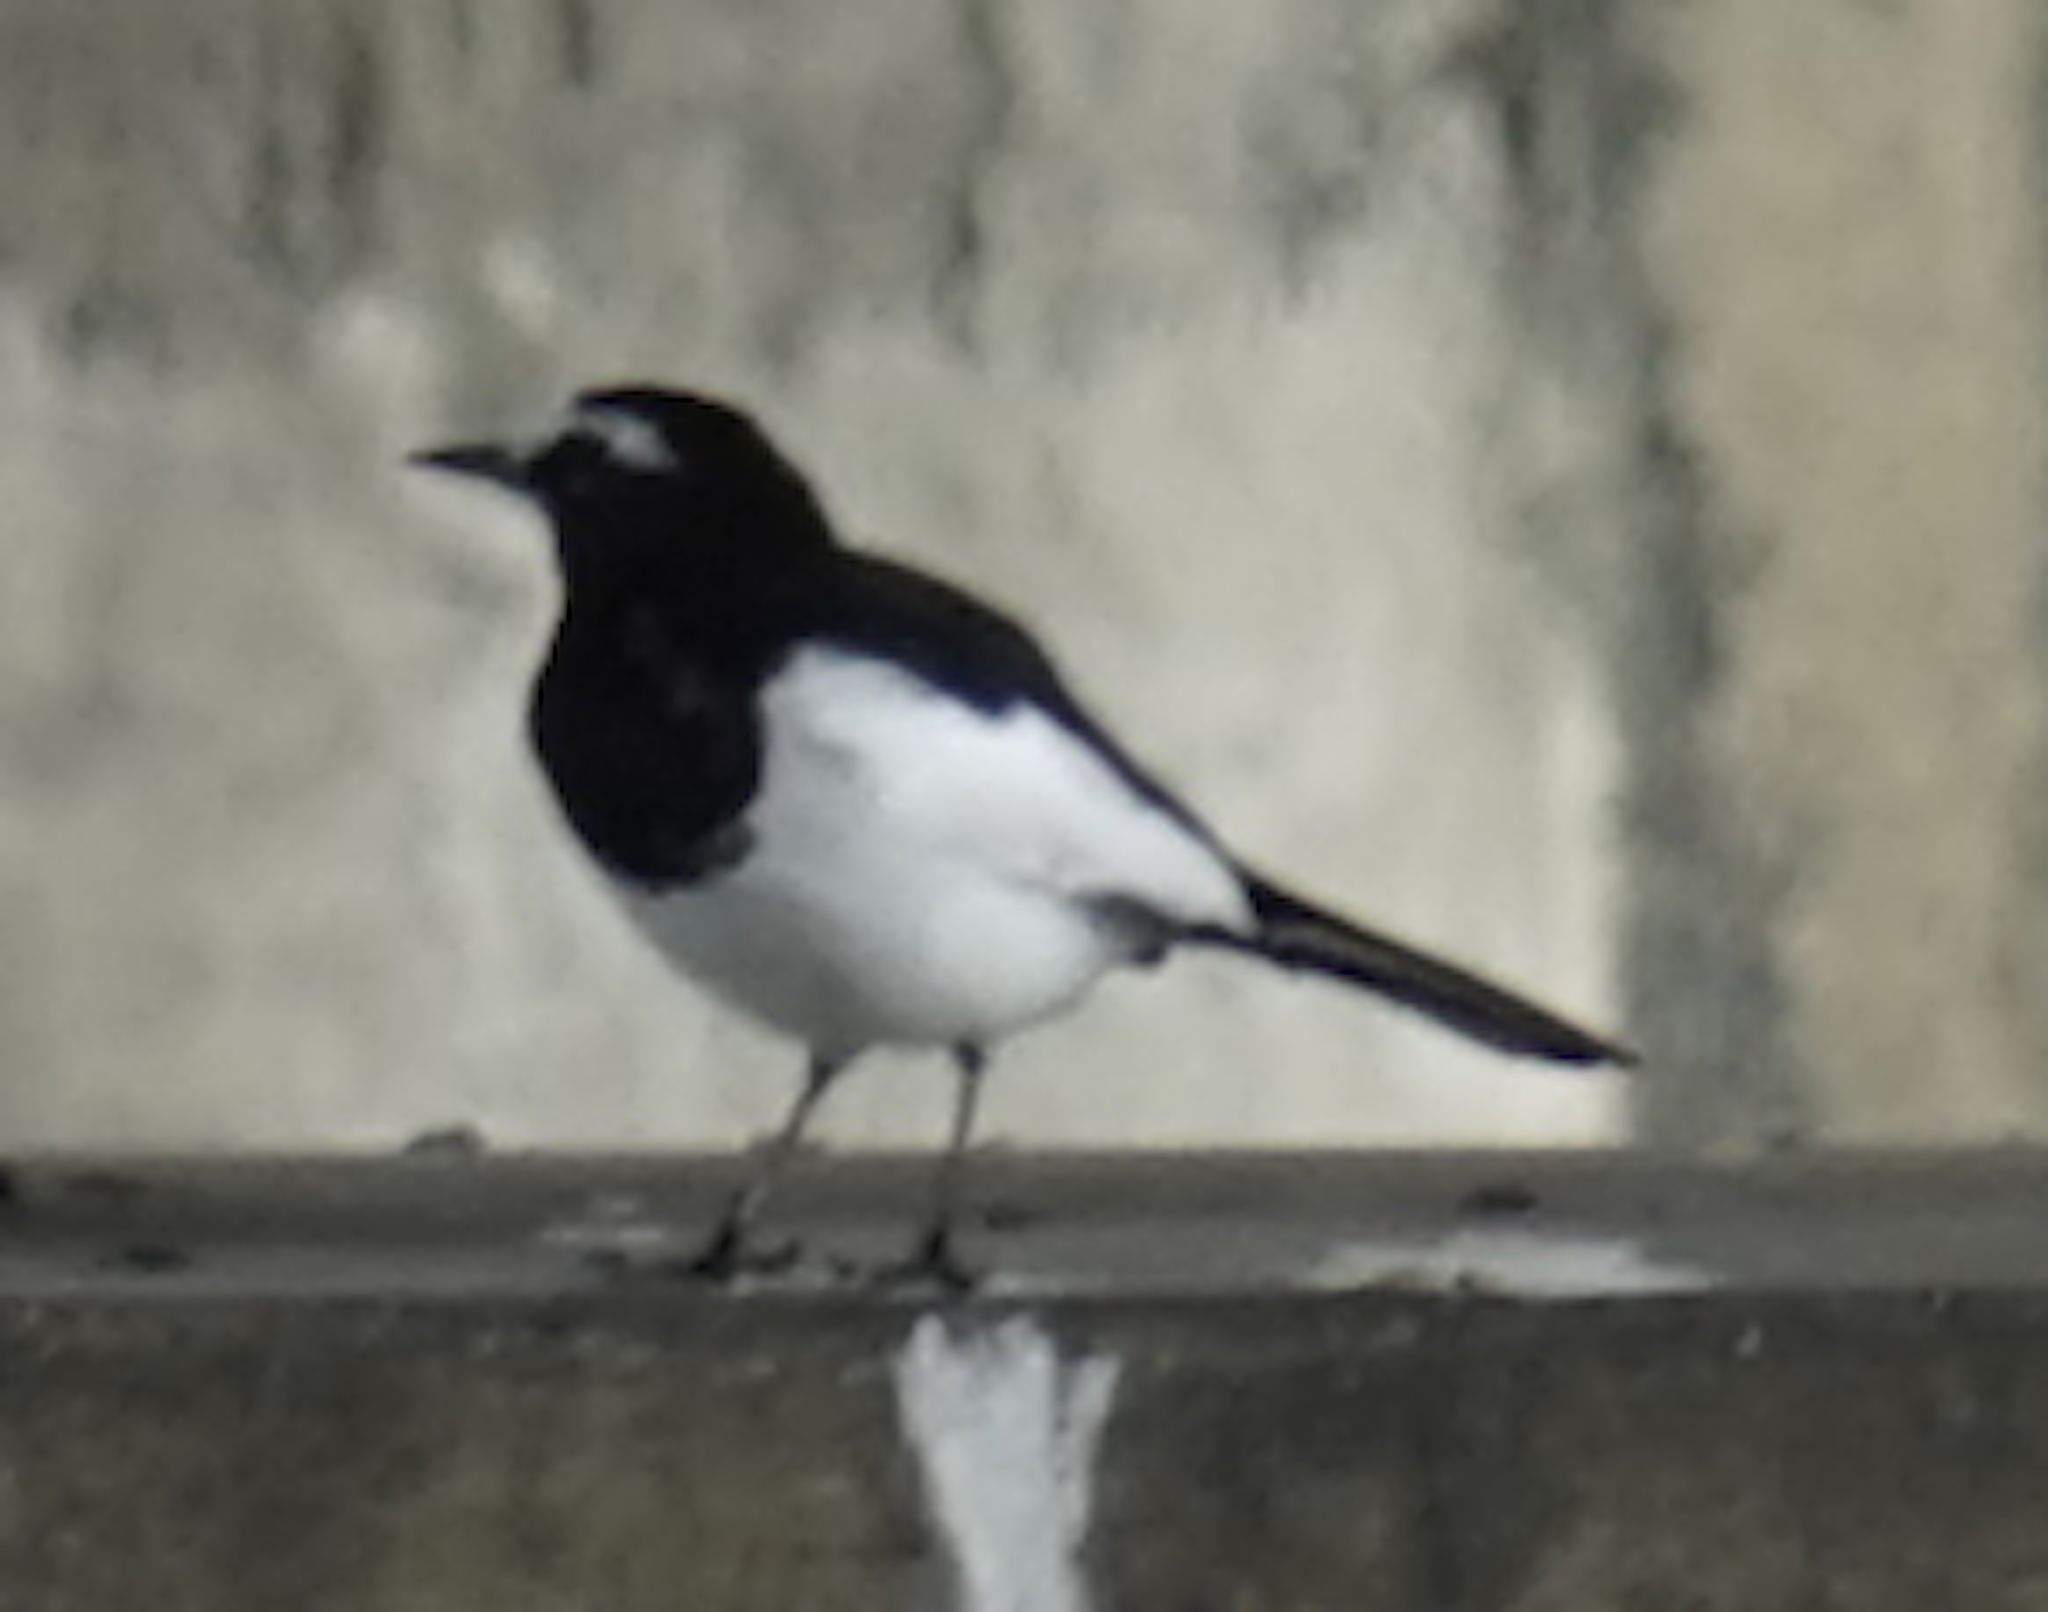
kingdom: Animalia
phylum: Chordata
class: Aves
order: Passeriformes
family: Motacillidae
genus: Motacilla
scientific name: Motacilla grandis
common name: Japanese wagtail
